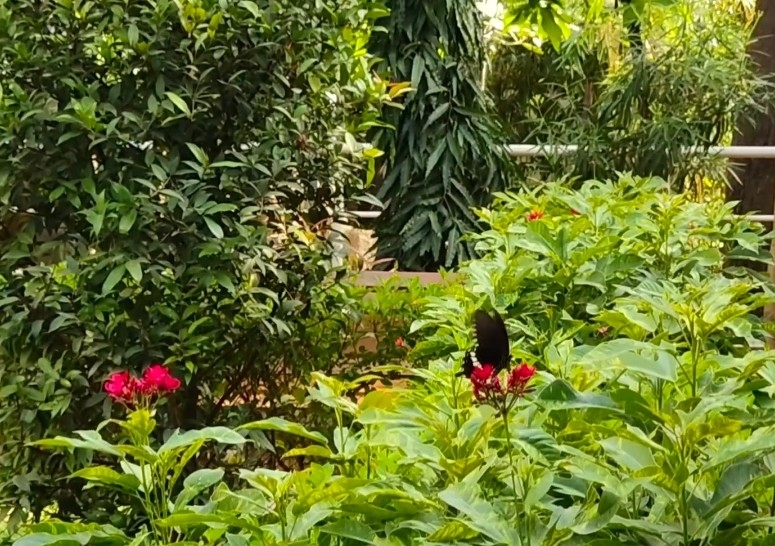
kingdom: Animalia
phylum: Arthropoda
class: Insecta
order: Lepidoptera
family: Papilionidae
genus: Papilio
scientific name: Papilio polytes
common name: Common mormon
